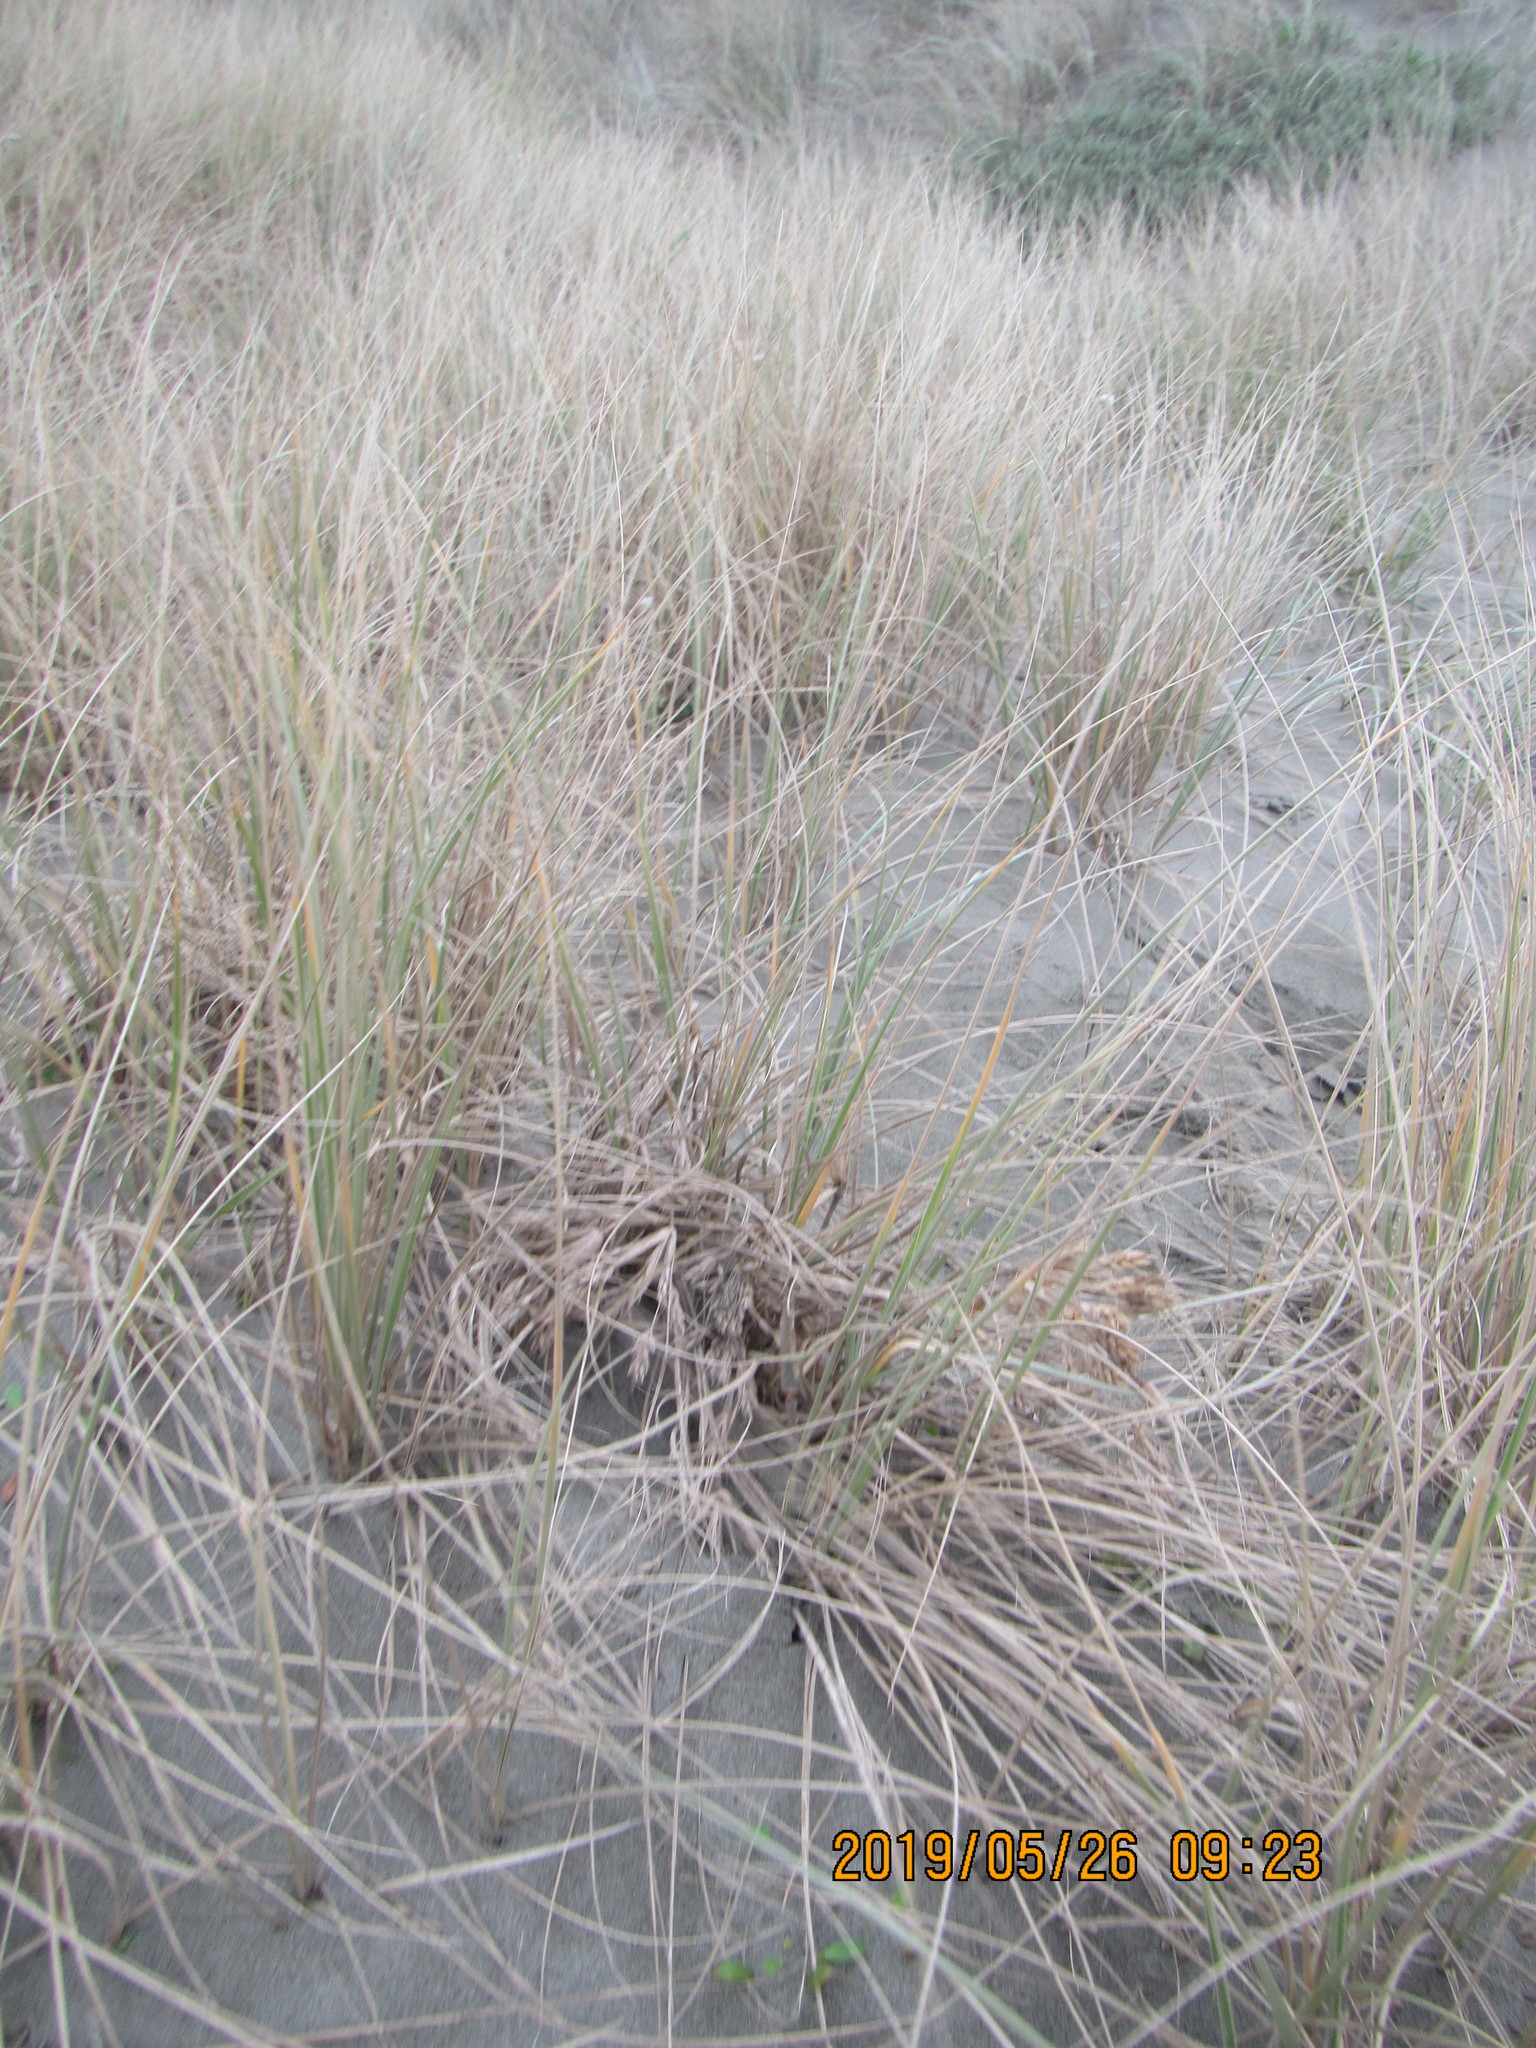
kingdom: Plantae
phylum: Tracheophyta
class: Liliopsida
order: Poales
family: Poaceae
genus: Spinifex
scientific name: Spinifex sericeus
